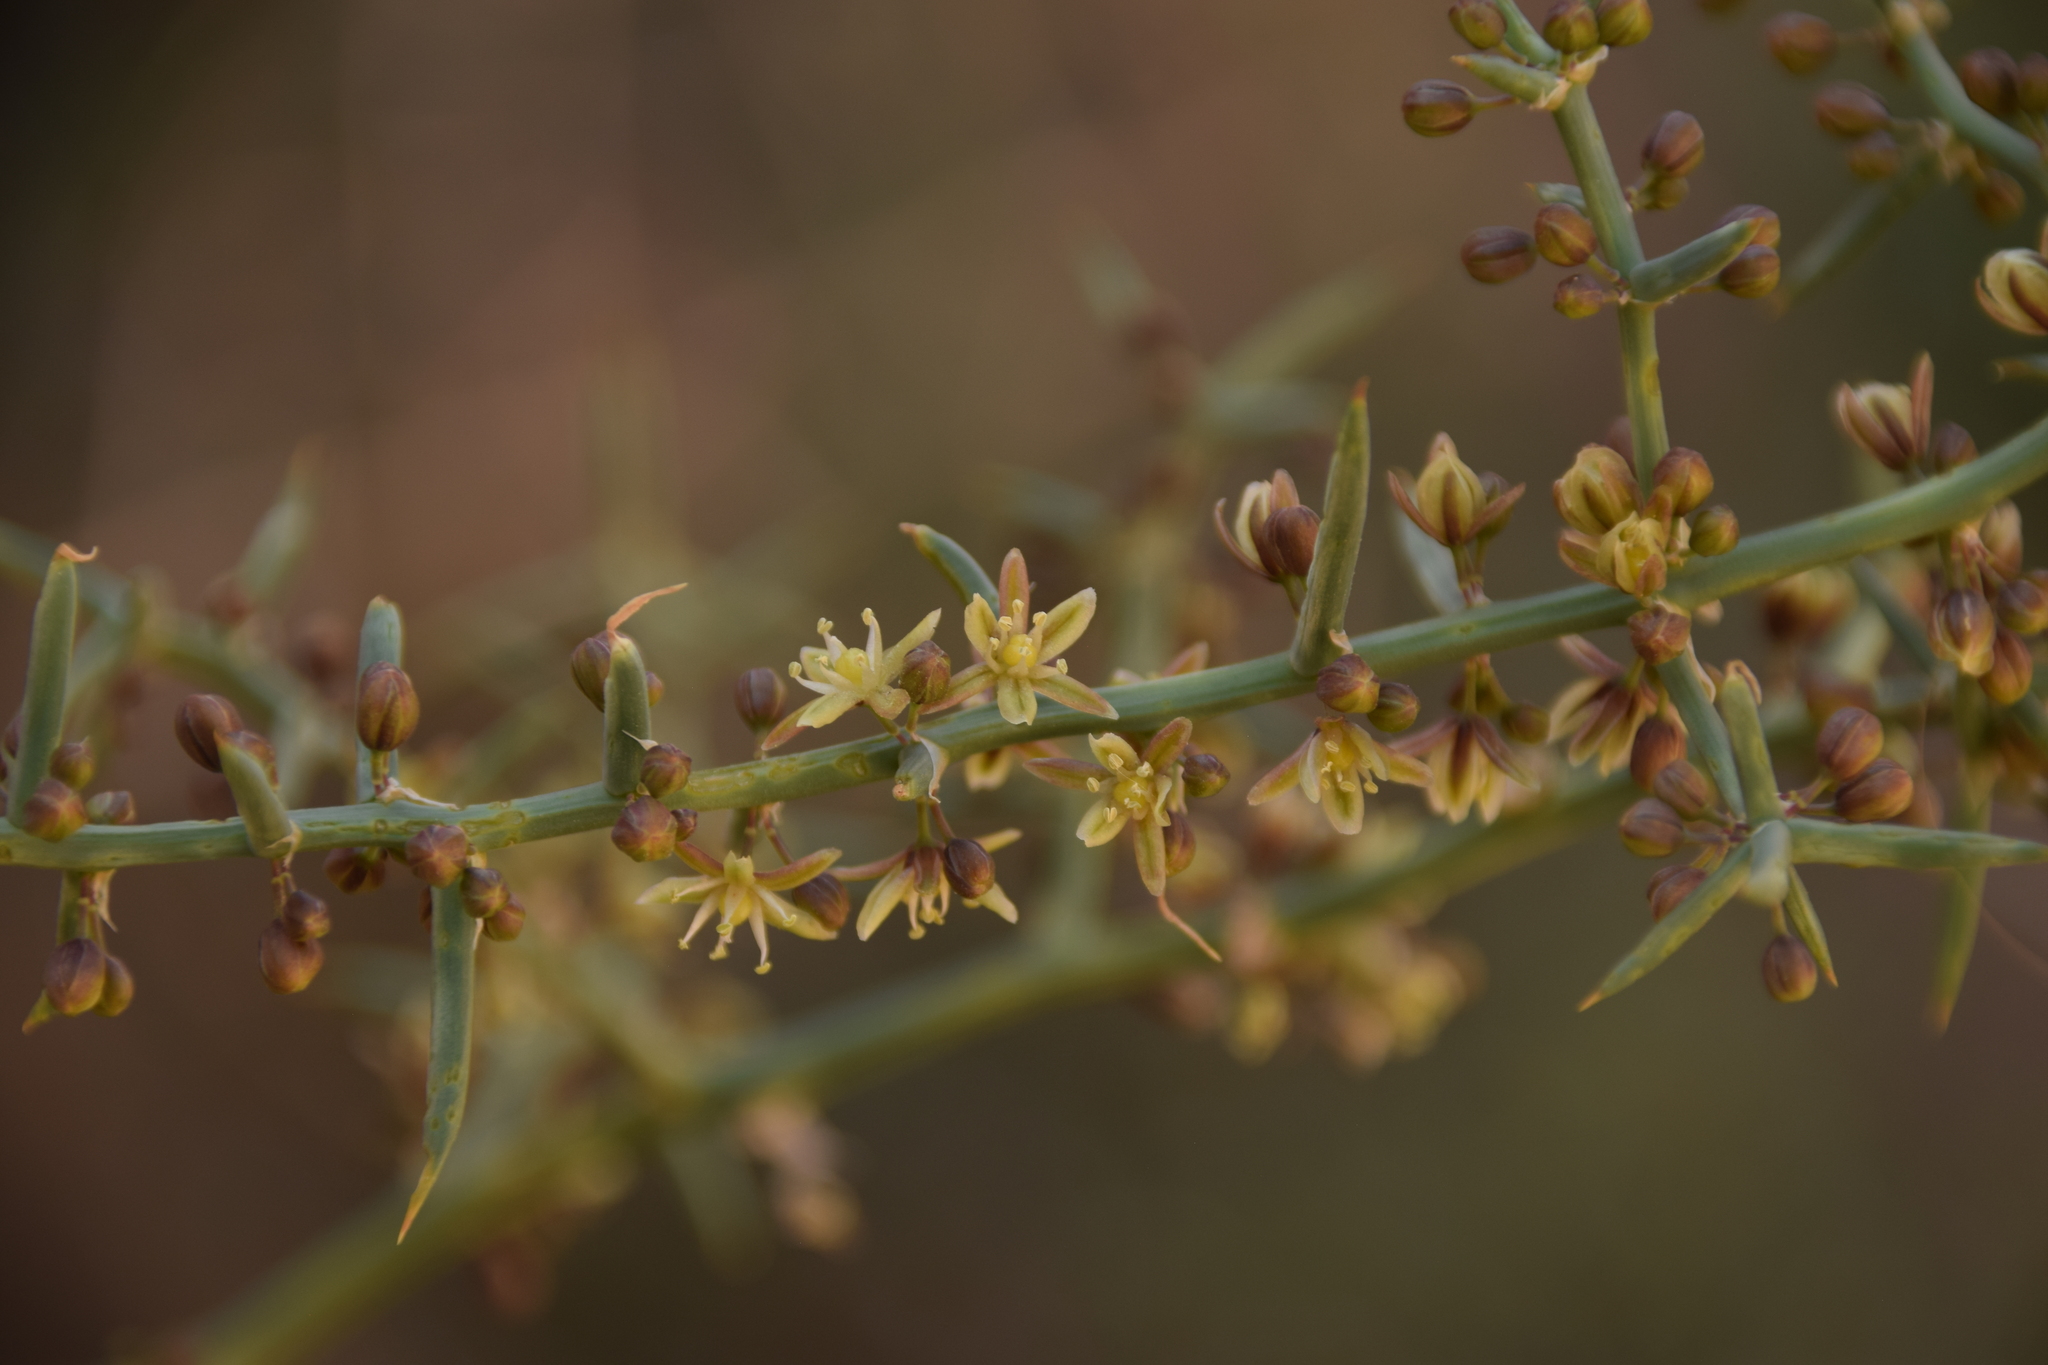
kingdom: Plantae
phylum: Tracheophyta
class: Liliopsida
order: Asparagales
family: Asparagaceae
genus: Asparagus
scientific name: Asparagus horridus
